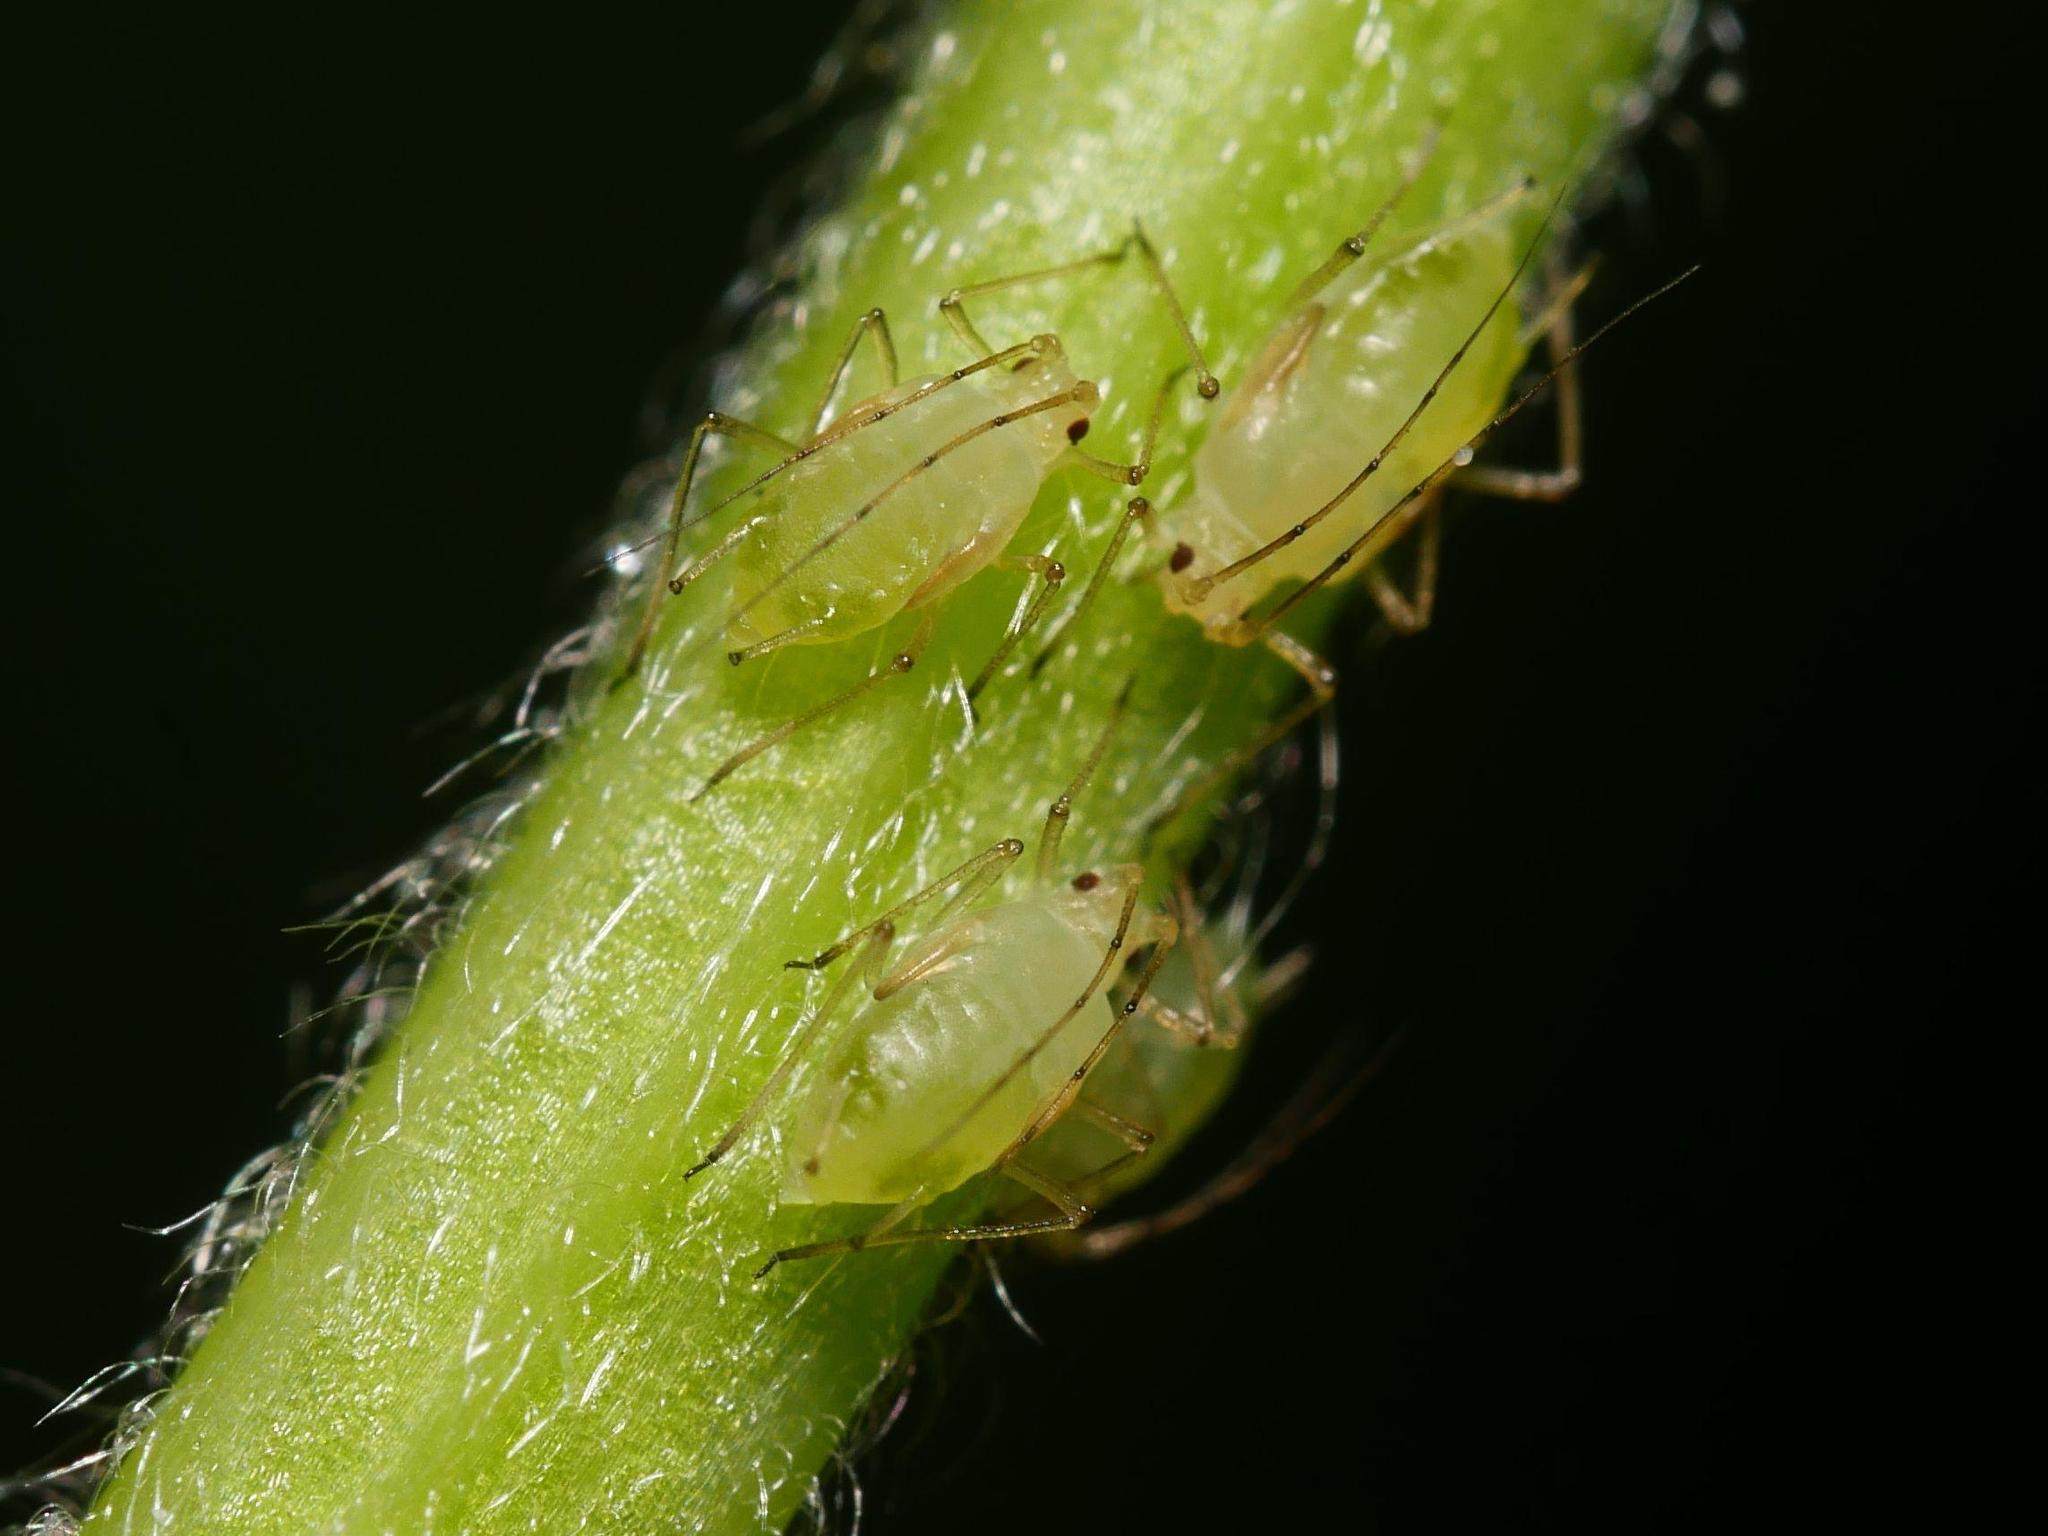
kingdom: Animalia
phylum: Arthropoda
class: Insecta
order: Hemiptera
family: Aphididae
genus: Aulacorthum
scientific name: Aulacorthum solani
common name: Foxglove aphid
